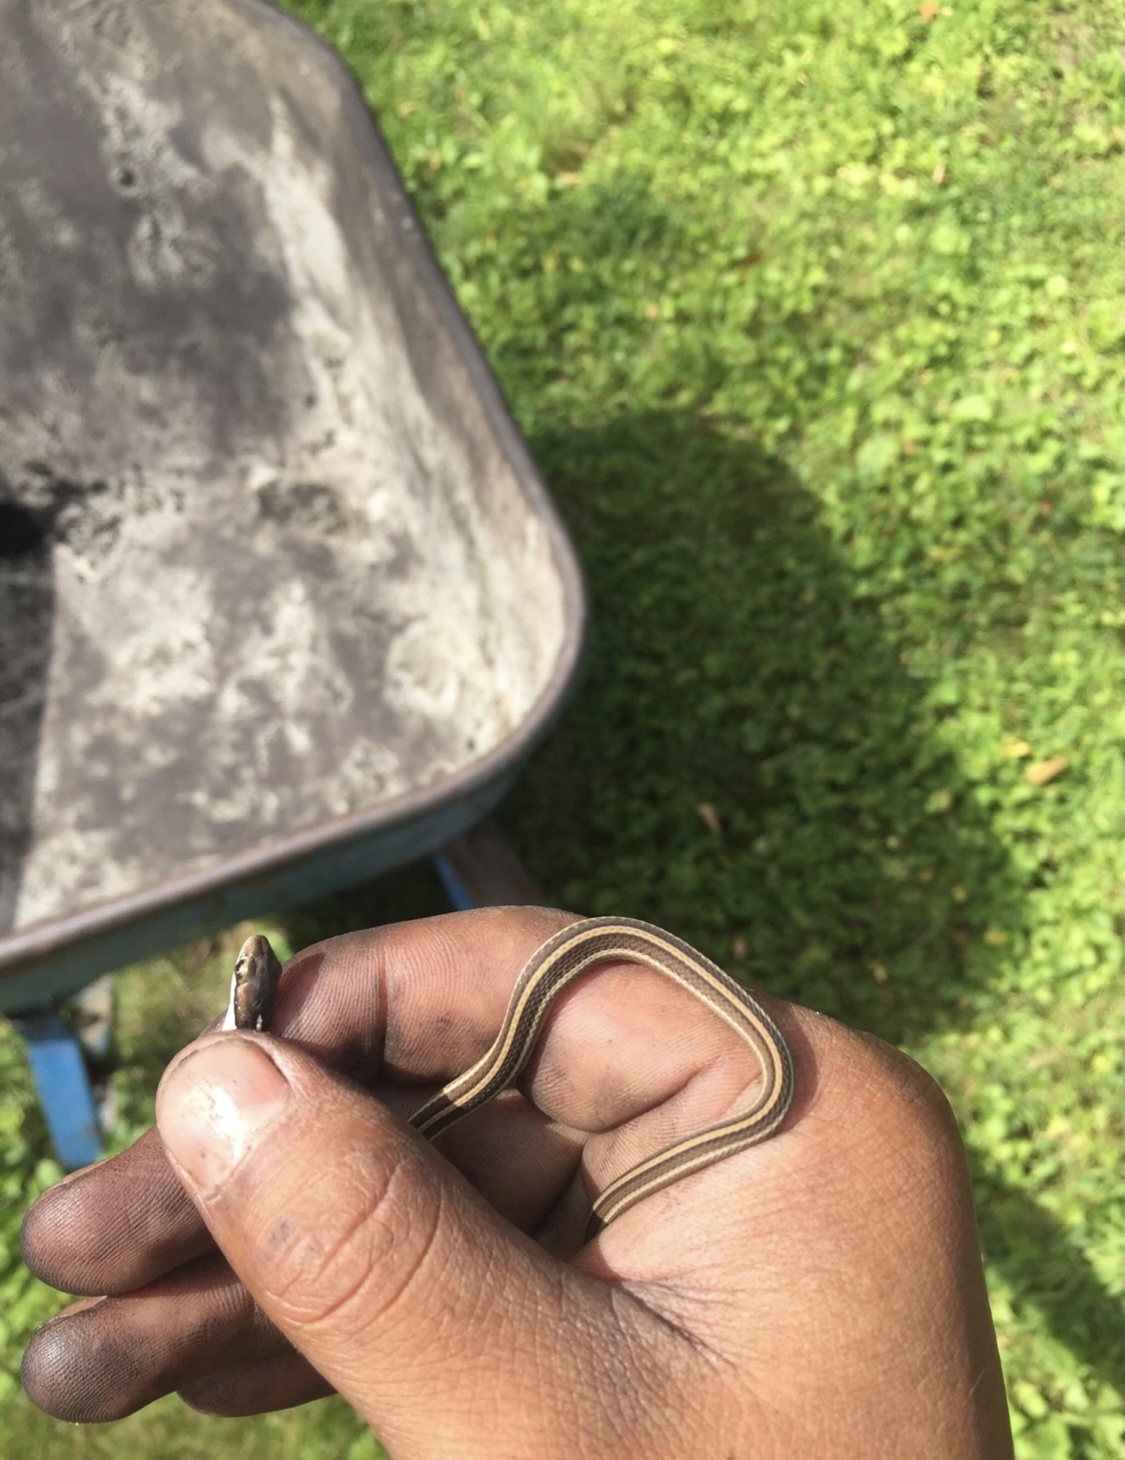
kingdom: Animalia
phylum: Chordata
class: Squamata
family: Colubridae
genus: Thamnophis
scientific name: Thamnophis saurita
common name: Eastern ribbonsnake
